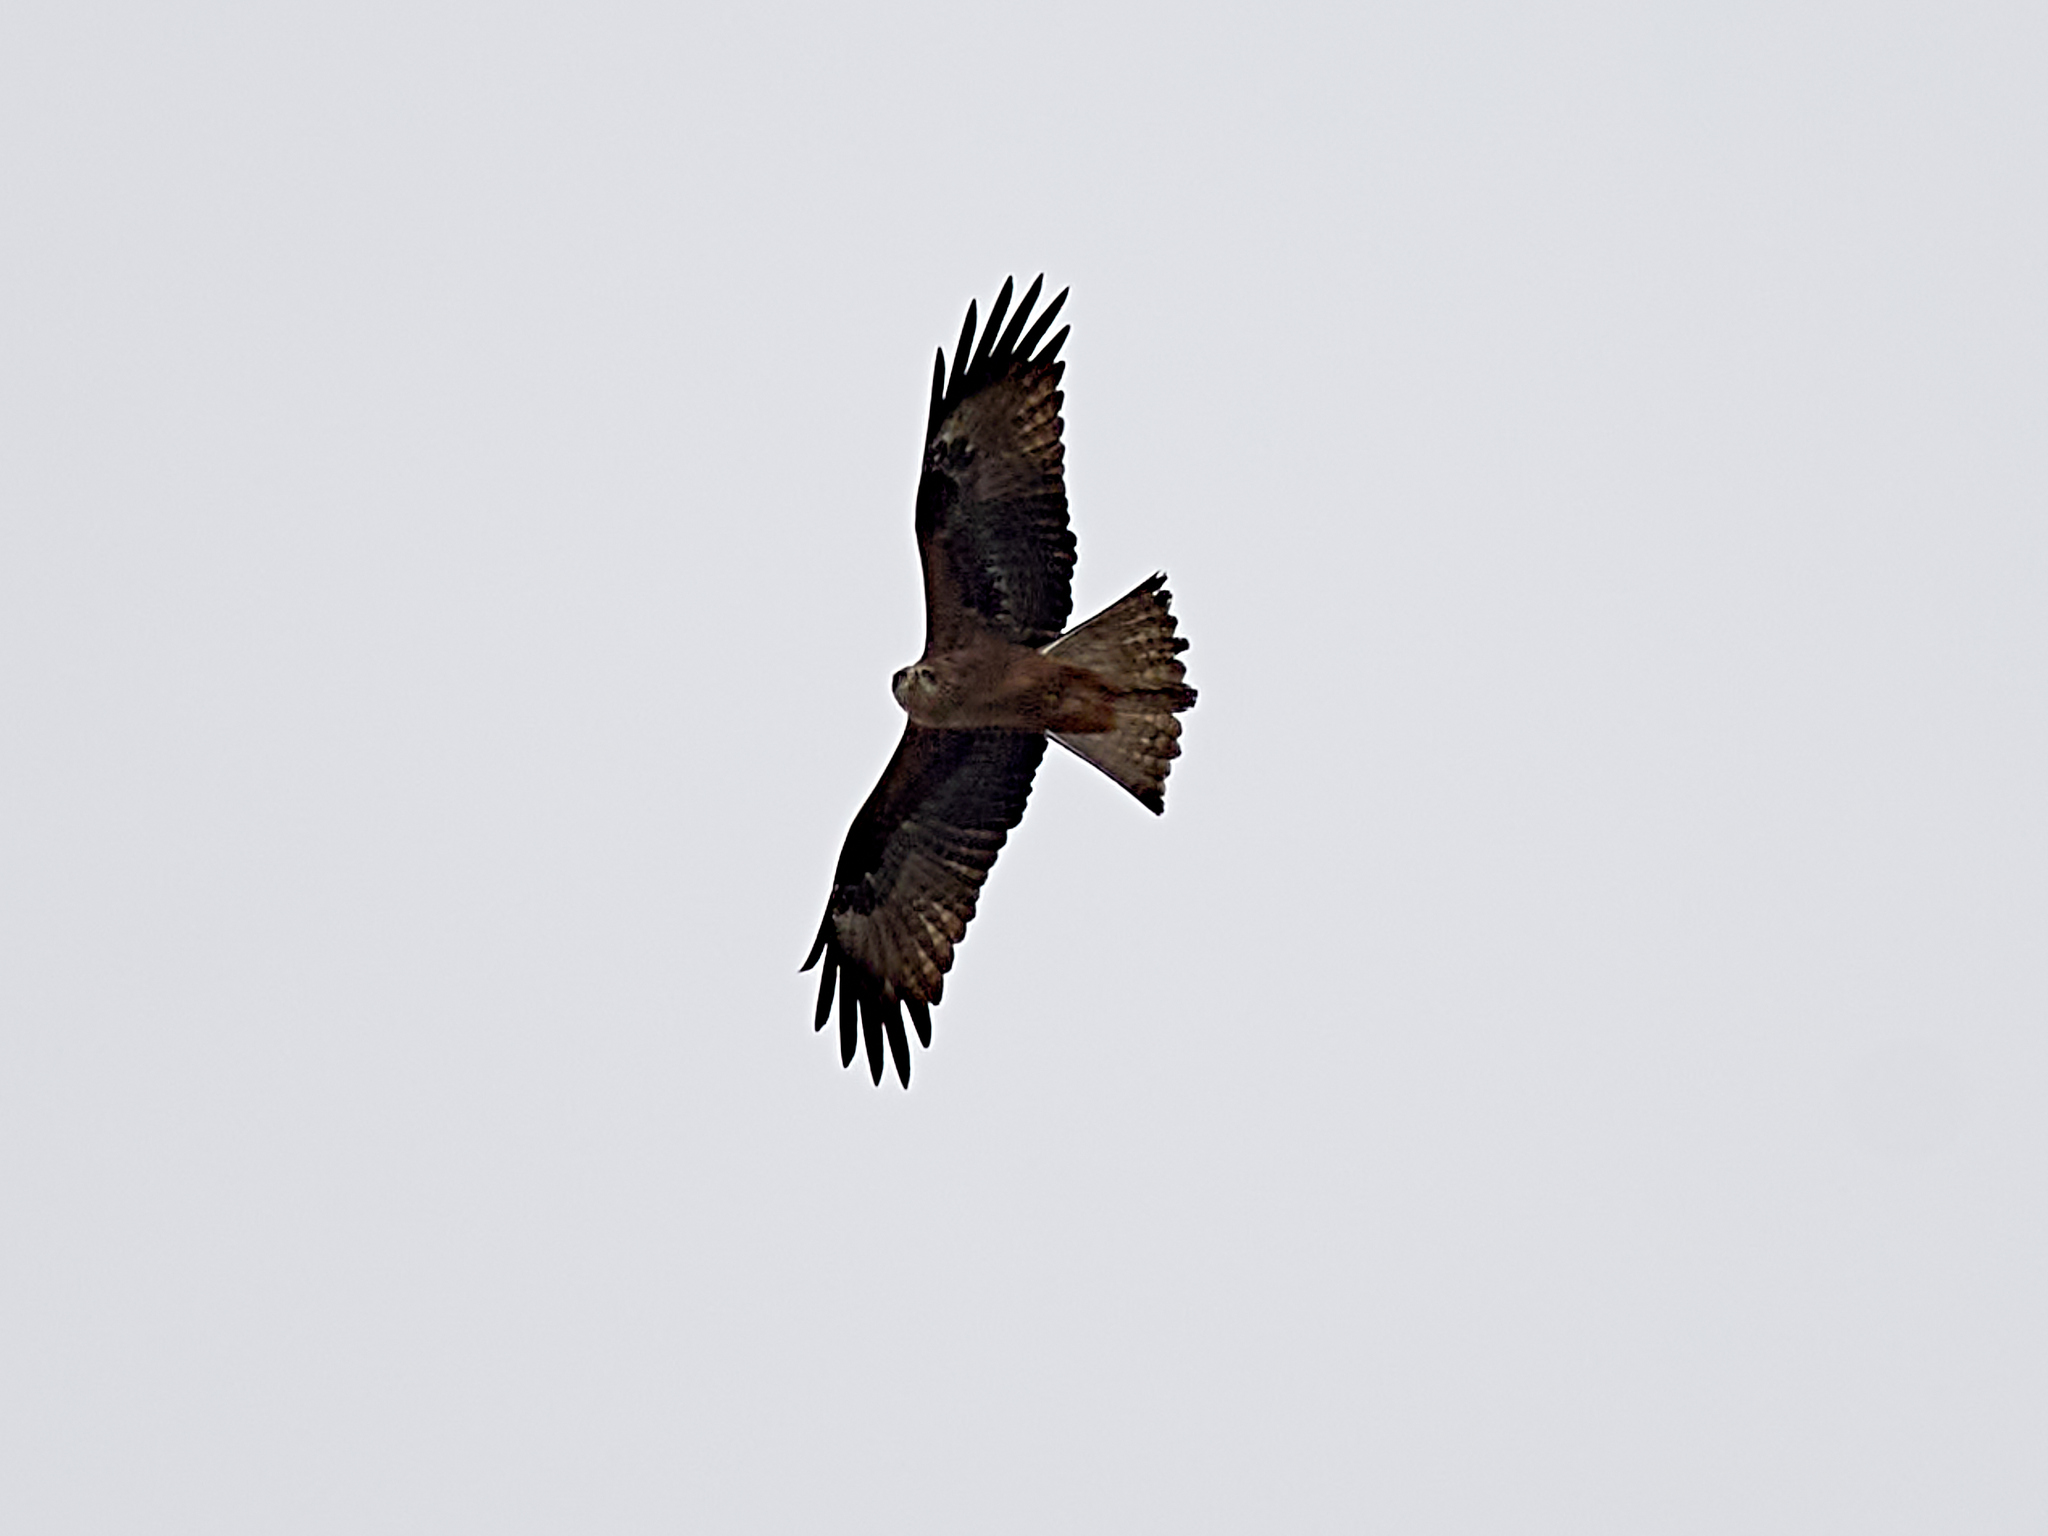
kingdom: Animalia
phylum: Chordata
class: Aves
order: Accipitriformes
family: Accipitridae
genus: Milvus
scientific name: Milvus migrans
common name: Black kite
